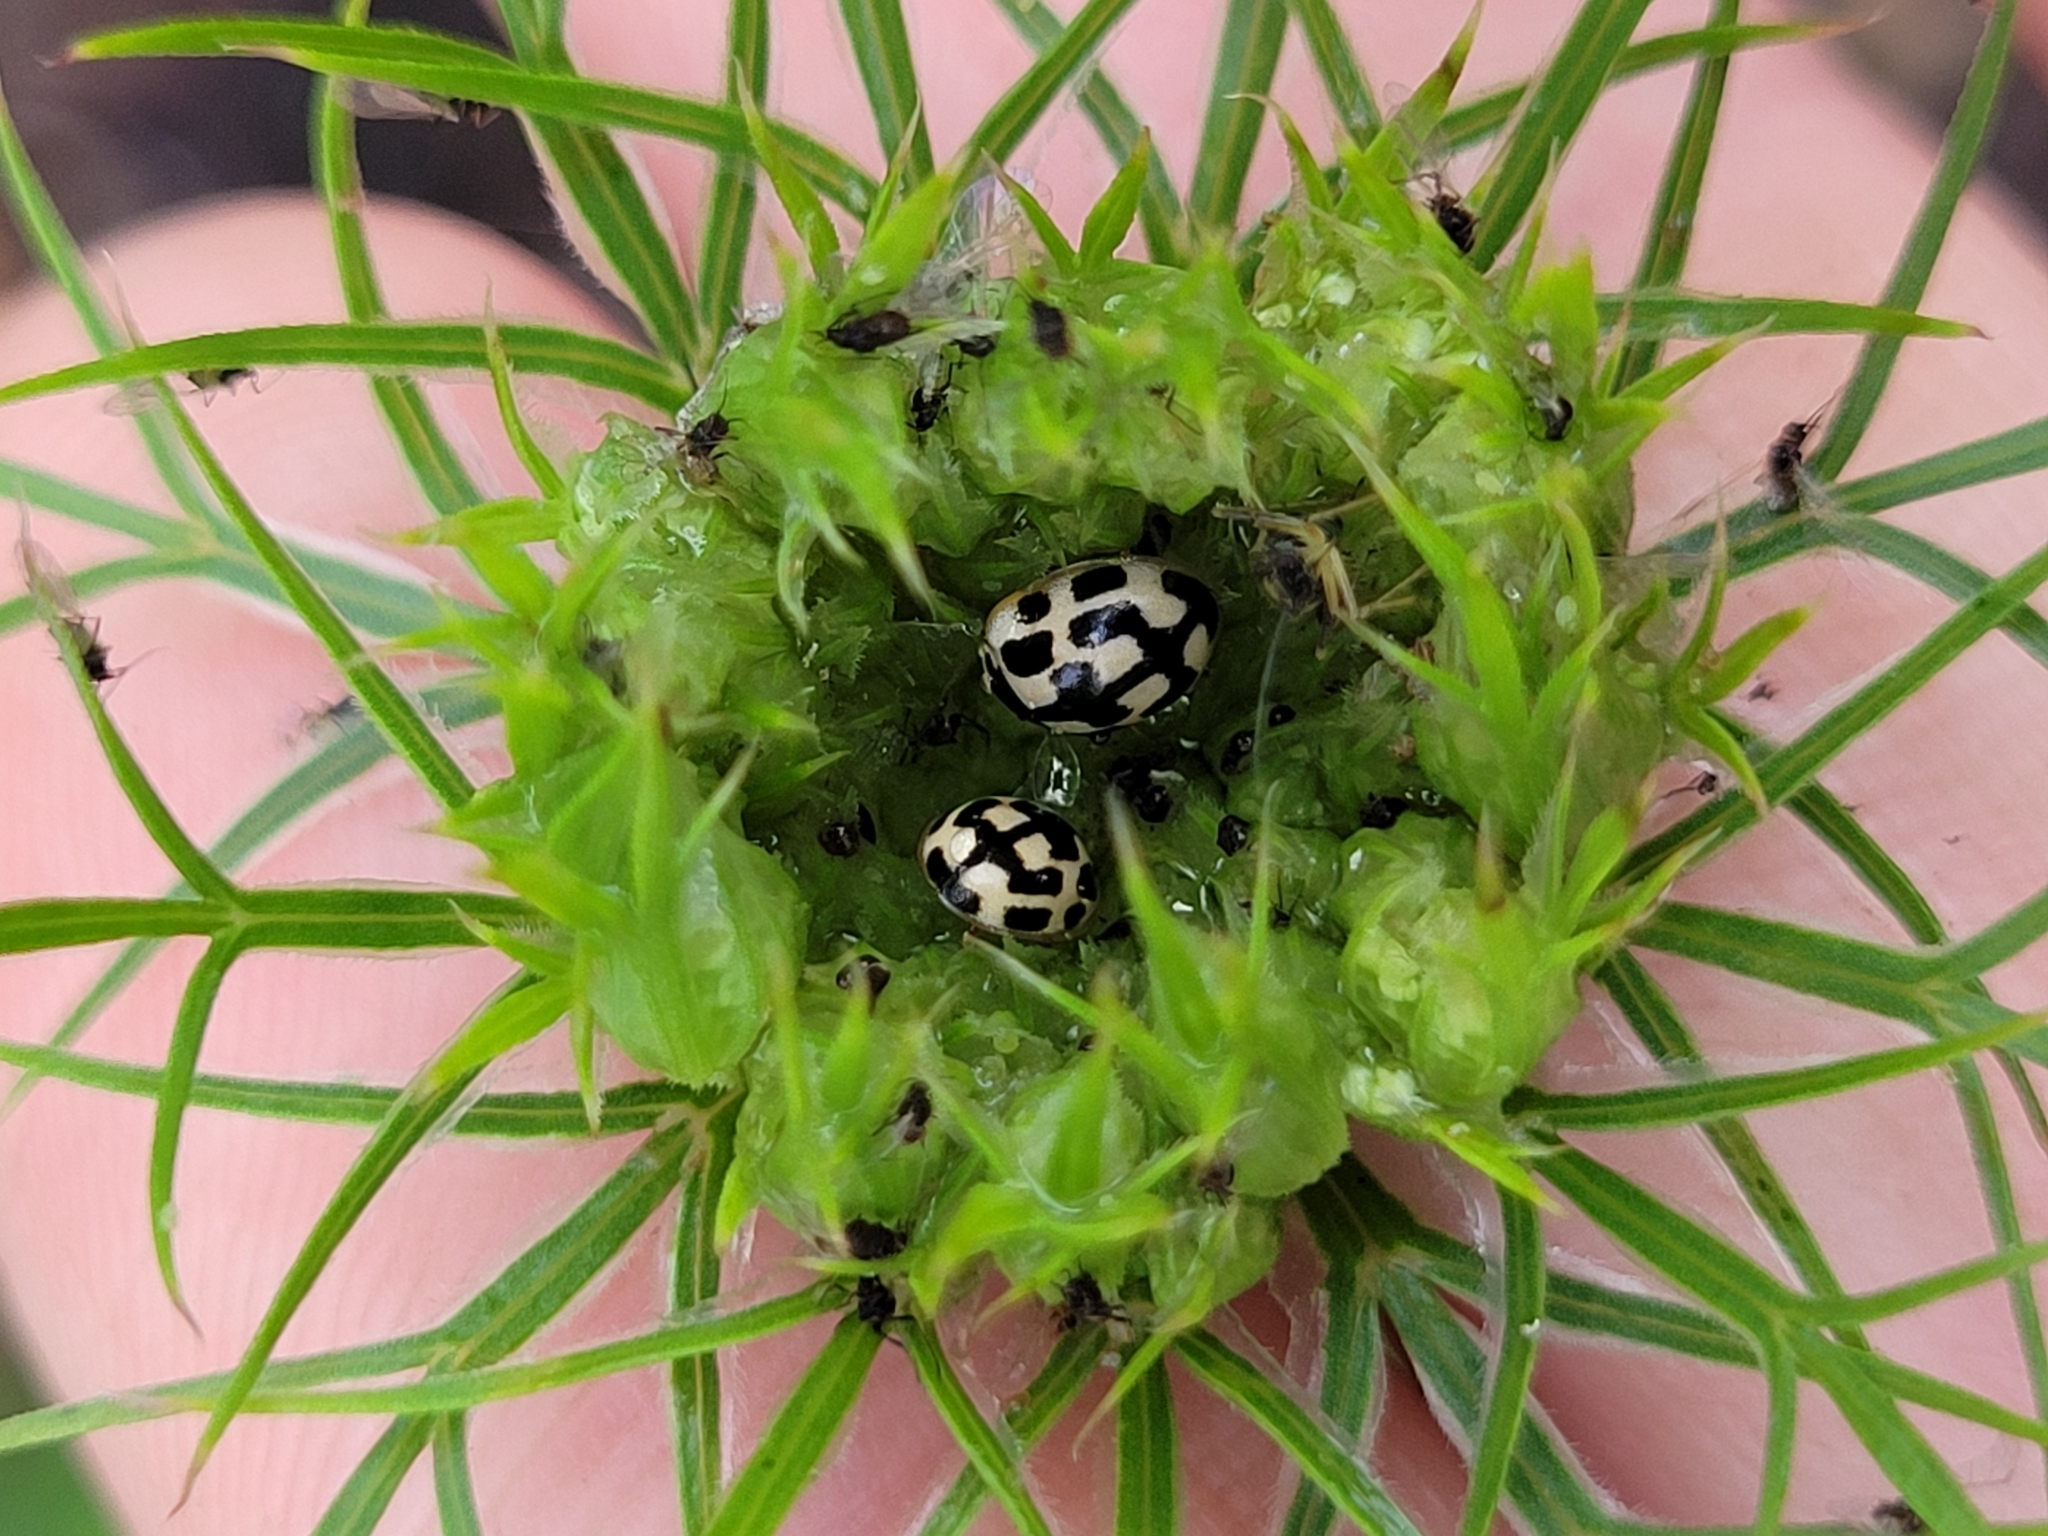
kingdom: Animalia
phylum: Arthropoda
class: Insecta
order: Coleoptera
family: Coccinellidae
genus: Propylaea
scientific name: Propylaea quatuordecimpunctata
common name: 14-spotted ladybird beetle
